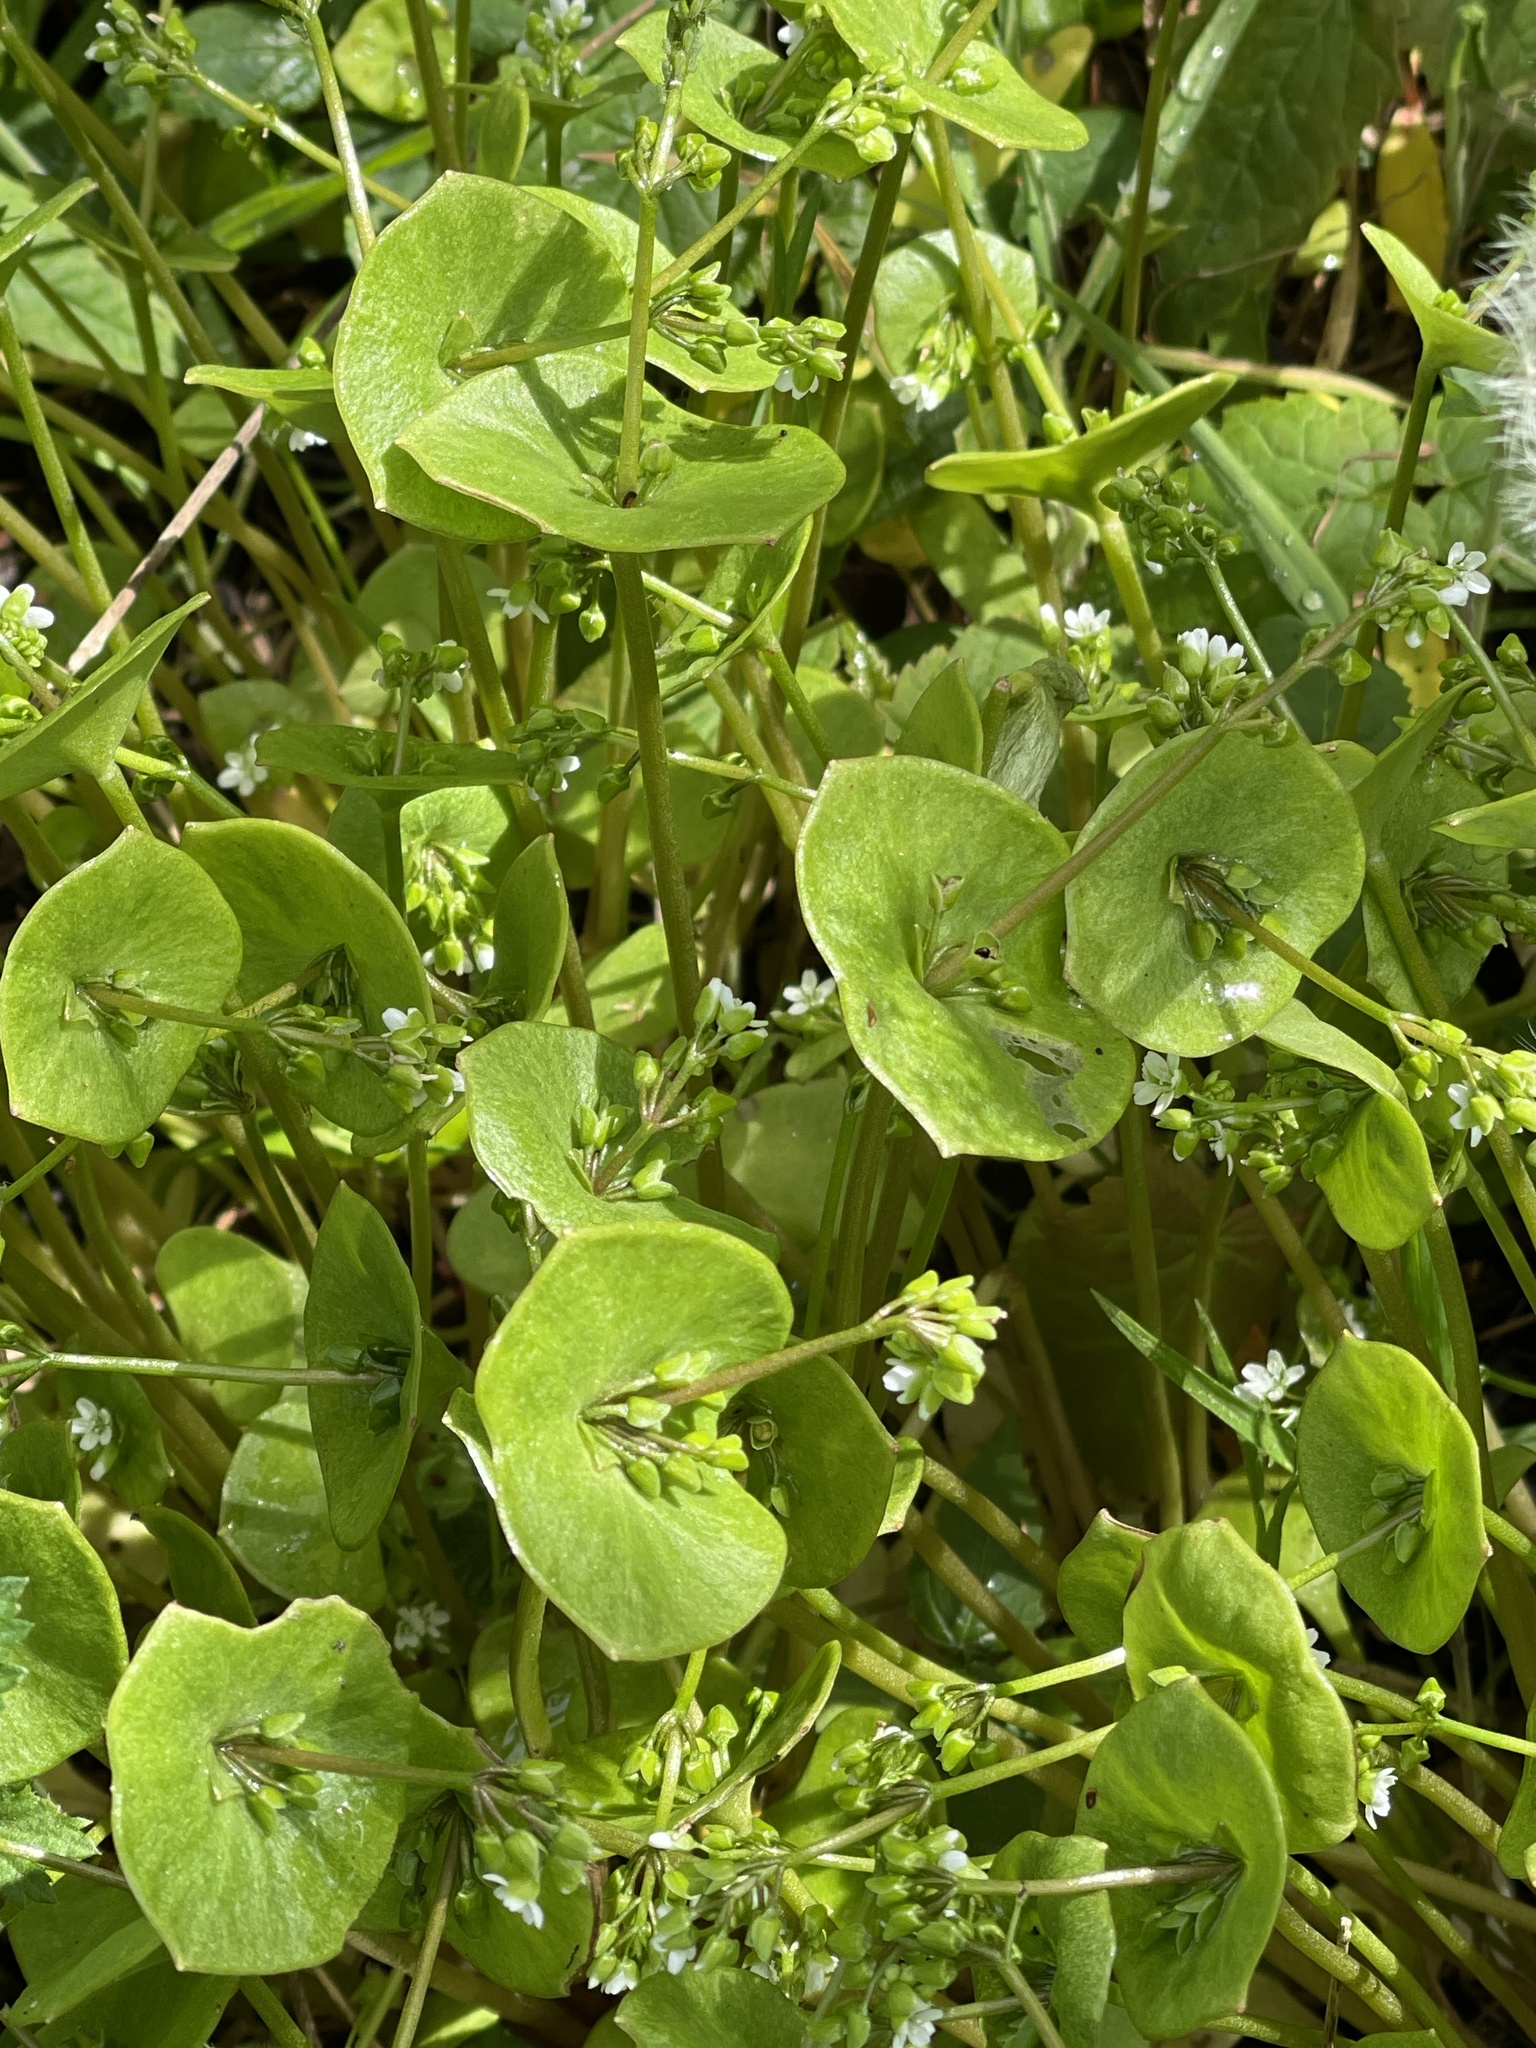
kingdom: Plantae
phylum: Tracheophyta
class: Magnoliopsida
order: Caryophyllales
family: Montiaceae
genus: Claytonia
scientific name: Claytonia perfoliata
